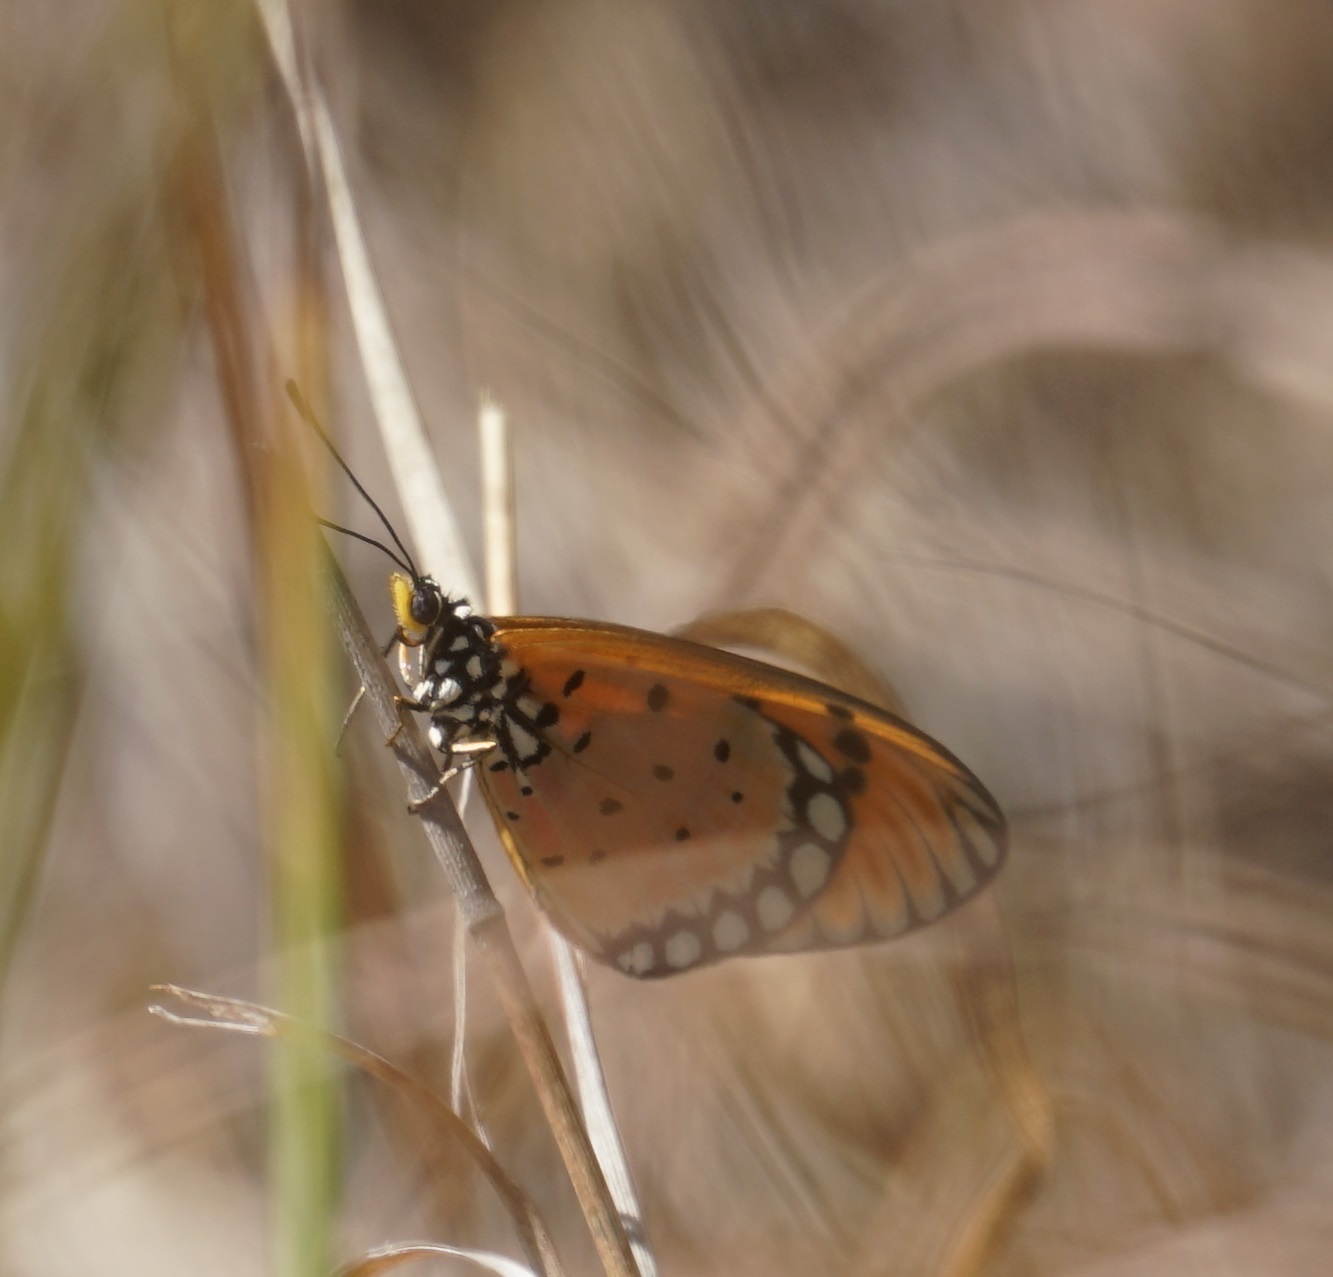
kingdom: Animalia
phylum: Arthropoda
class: Insecta
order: Lepidoptera
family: Nymphalidae
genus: Acraea
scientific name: Acraea terpsicore
